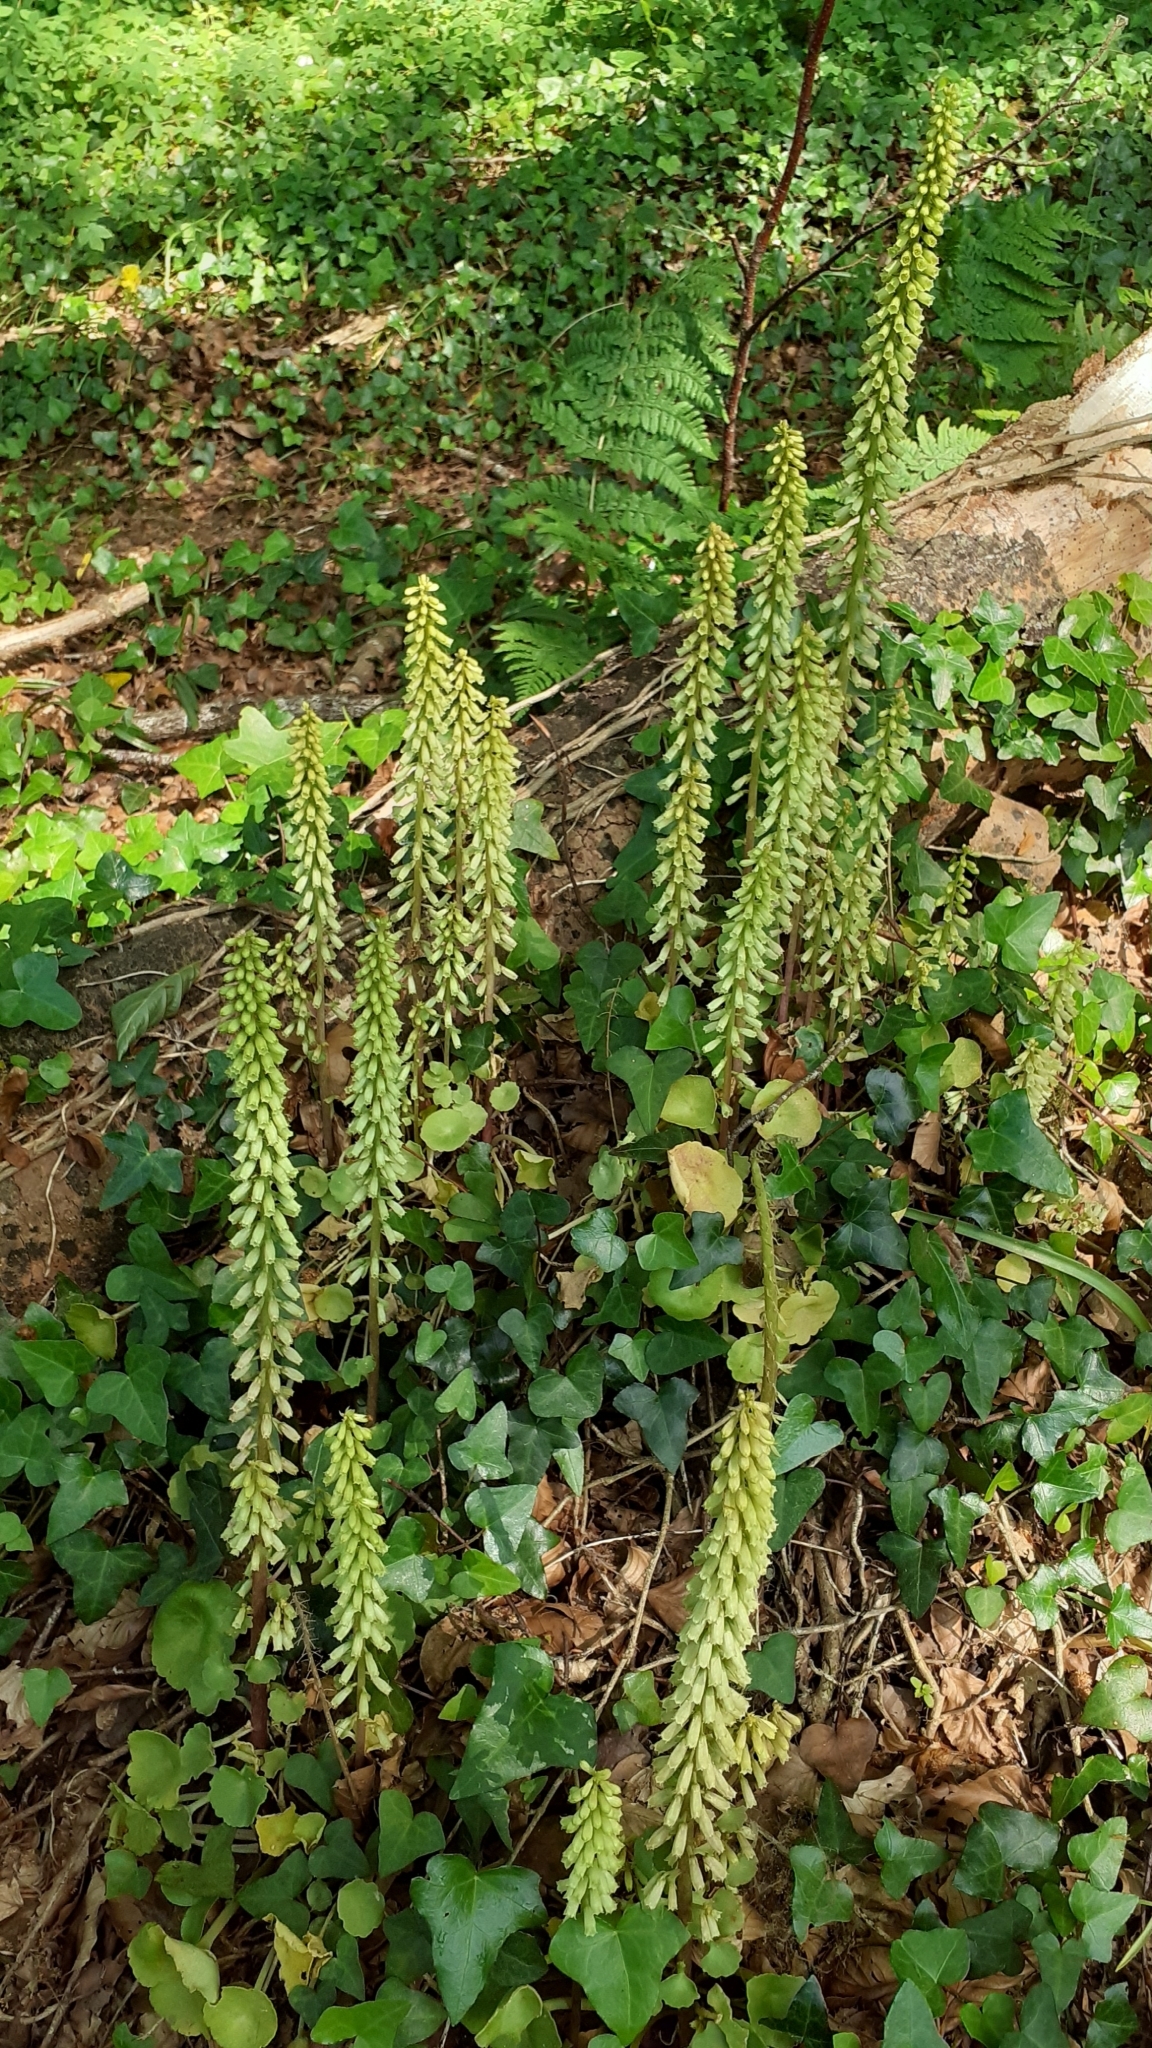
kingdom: Plantae
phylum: Tracheophyta
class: Magnoliopsida
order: Saxifragales
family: Crassulaceae
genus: Umbilicus
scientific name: Umbilicus rupestris
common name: Navelwort
